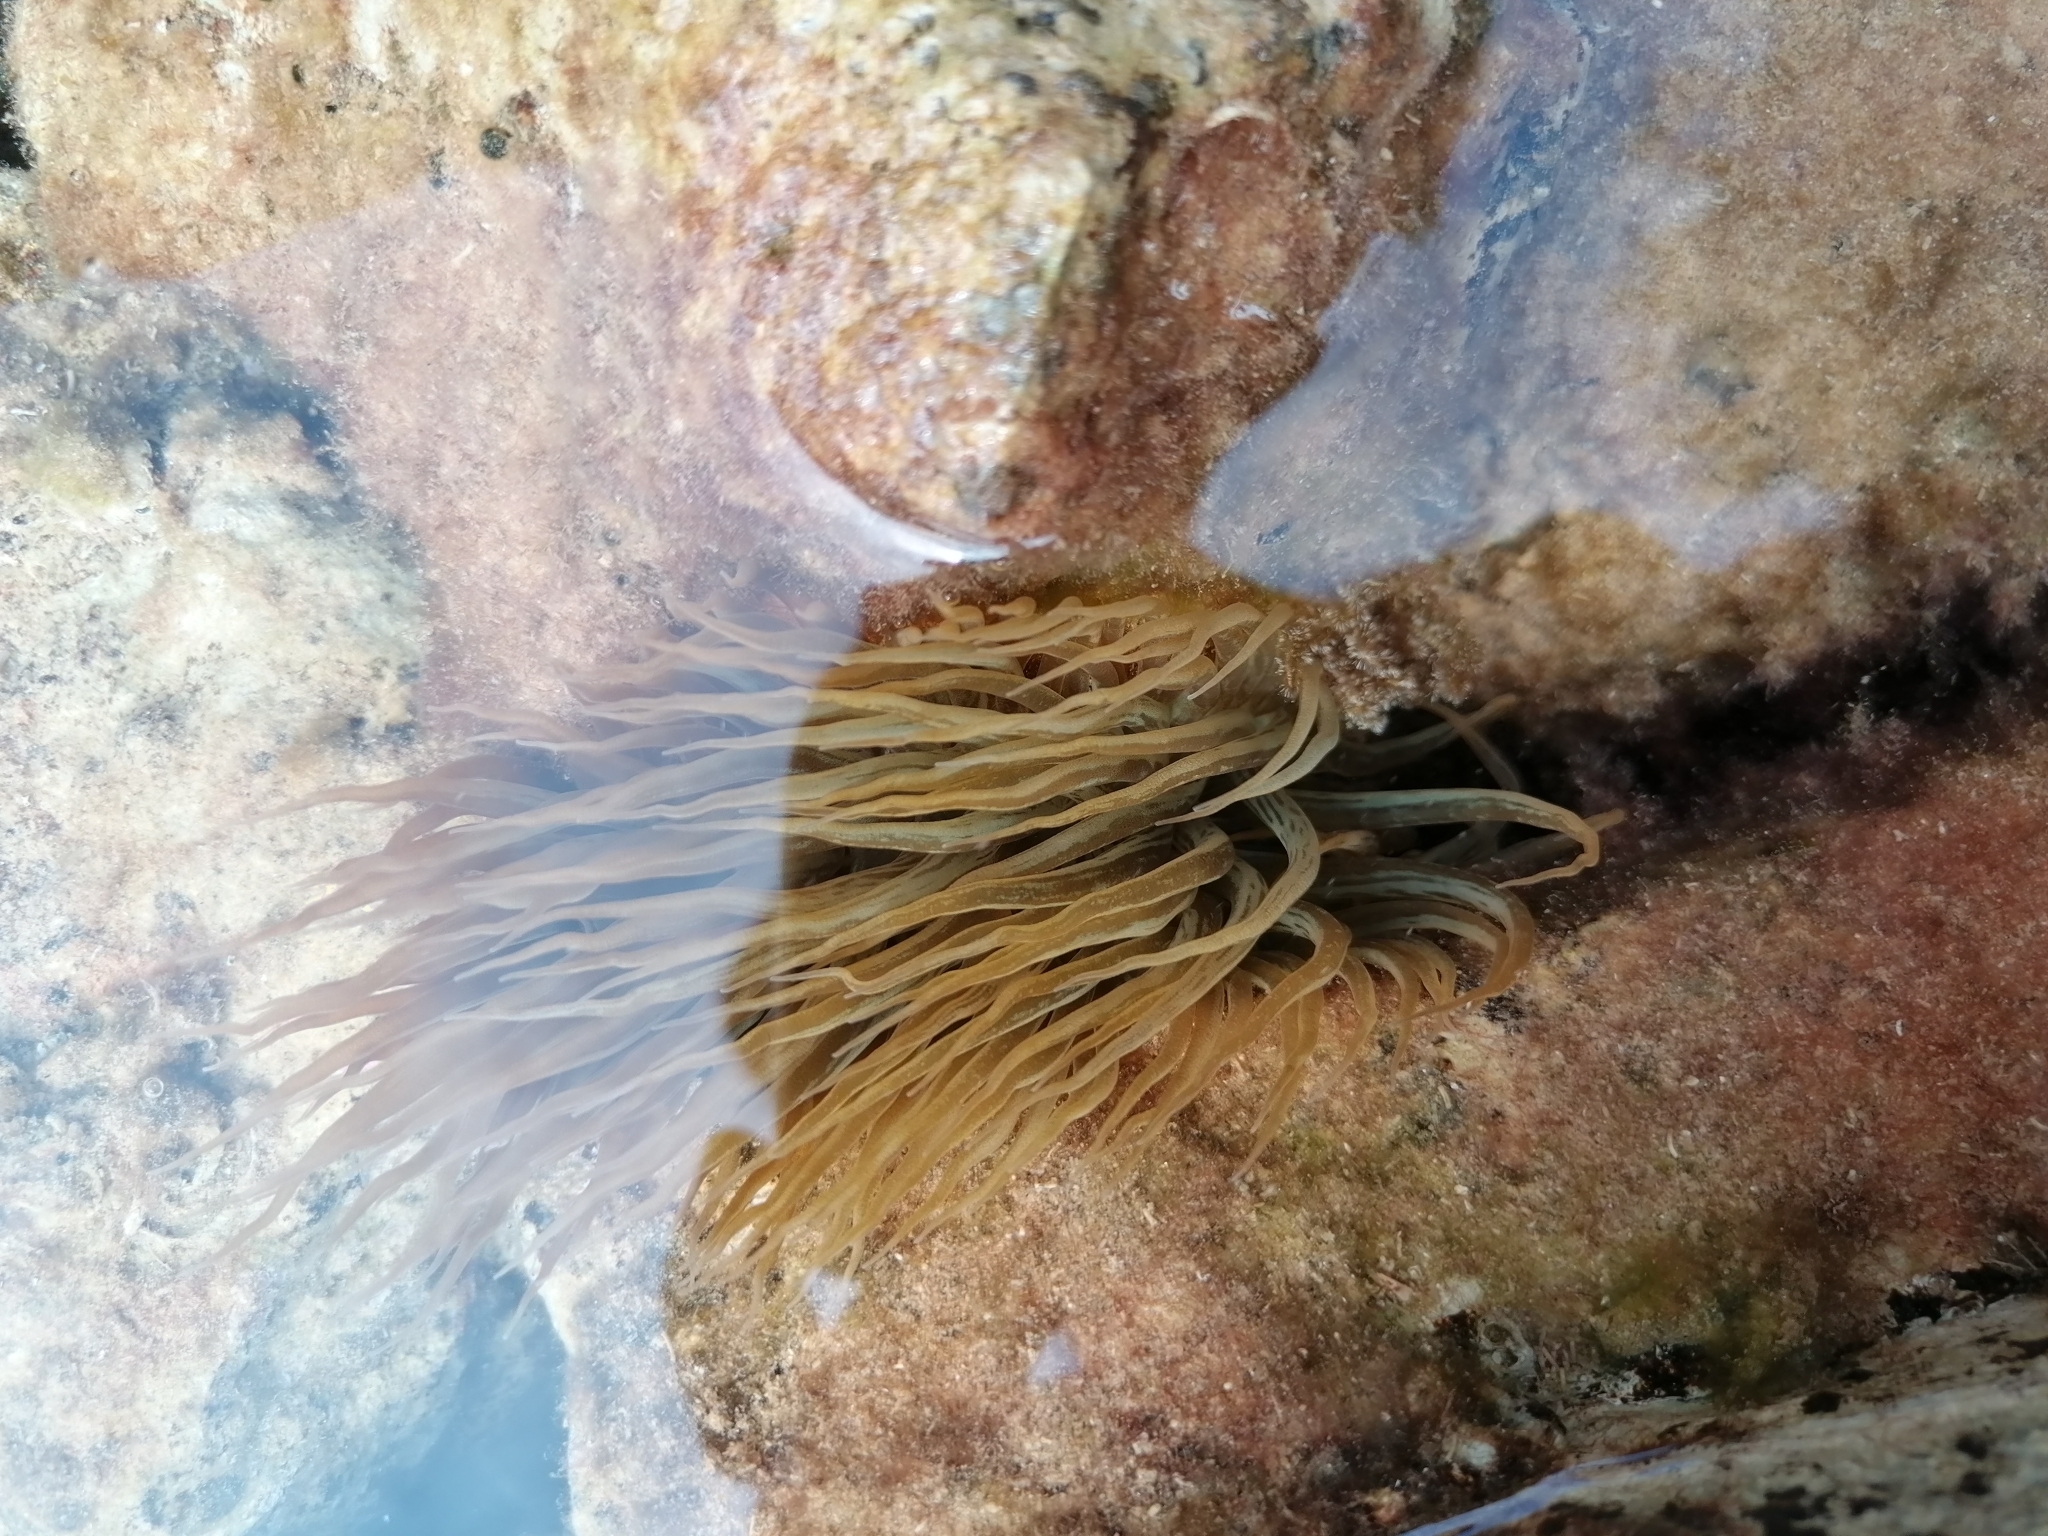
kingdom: Animalia
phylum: Cnidaria
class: Anthozoa
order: Actiniaria
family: Aiptasiidae
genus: Aiptasia
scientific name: Aiptasia mutabilis
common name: Trumpet anemone
